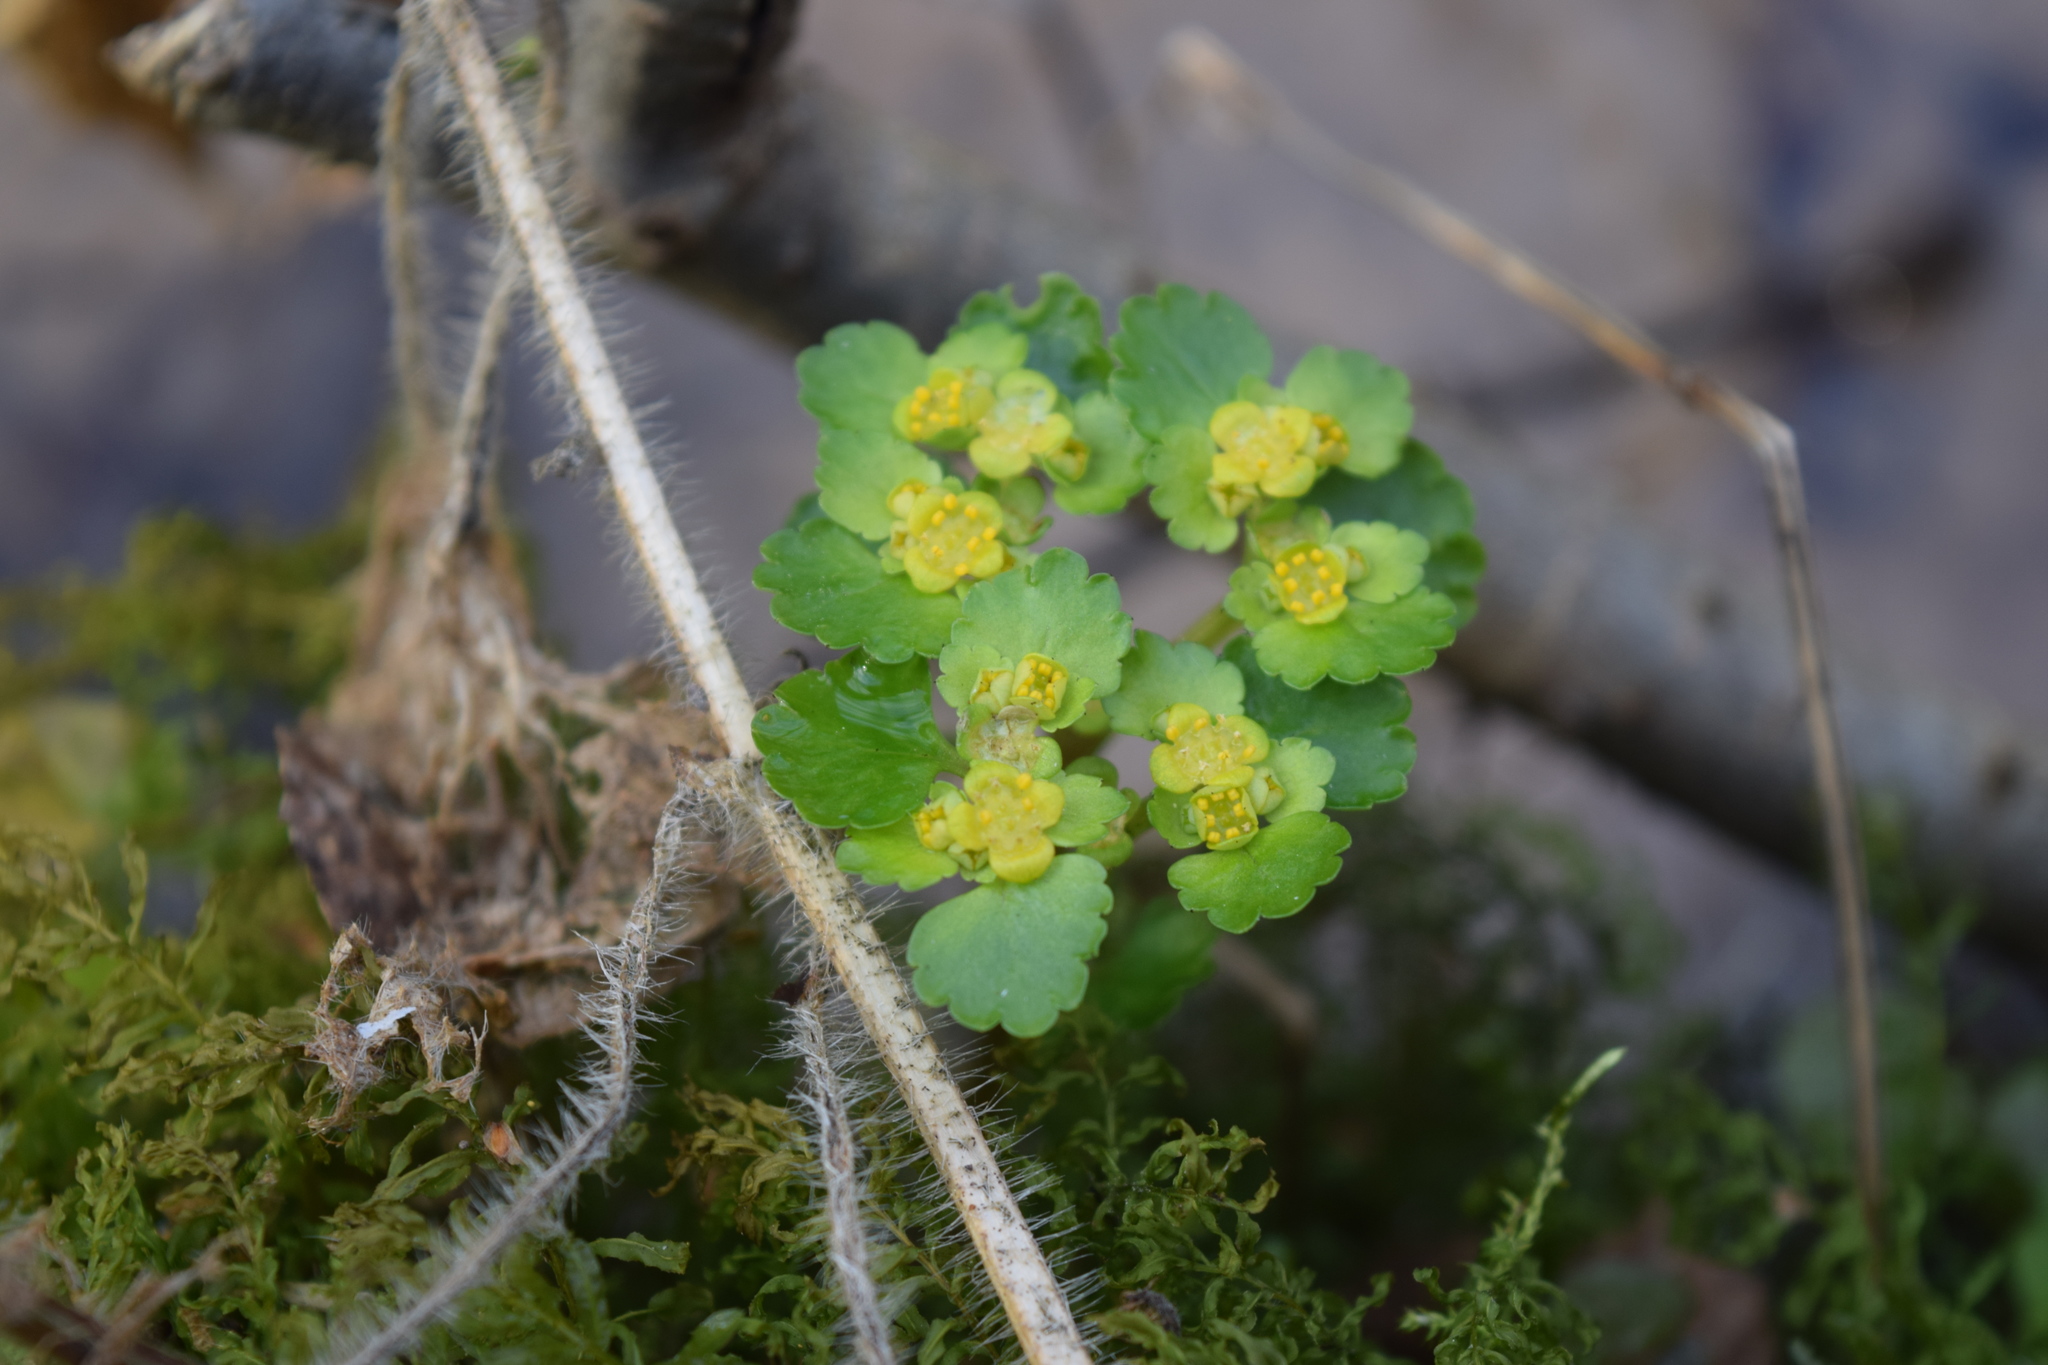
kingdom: Plantae
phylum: Tracheophyta
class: Magnoliopsida
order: Saxifragales
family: Saxifragaceae
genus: Chrysosplenium
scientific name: Chrysosplenium alternifolium
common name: Alternate-leaved golden-saxifrage
